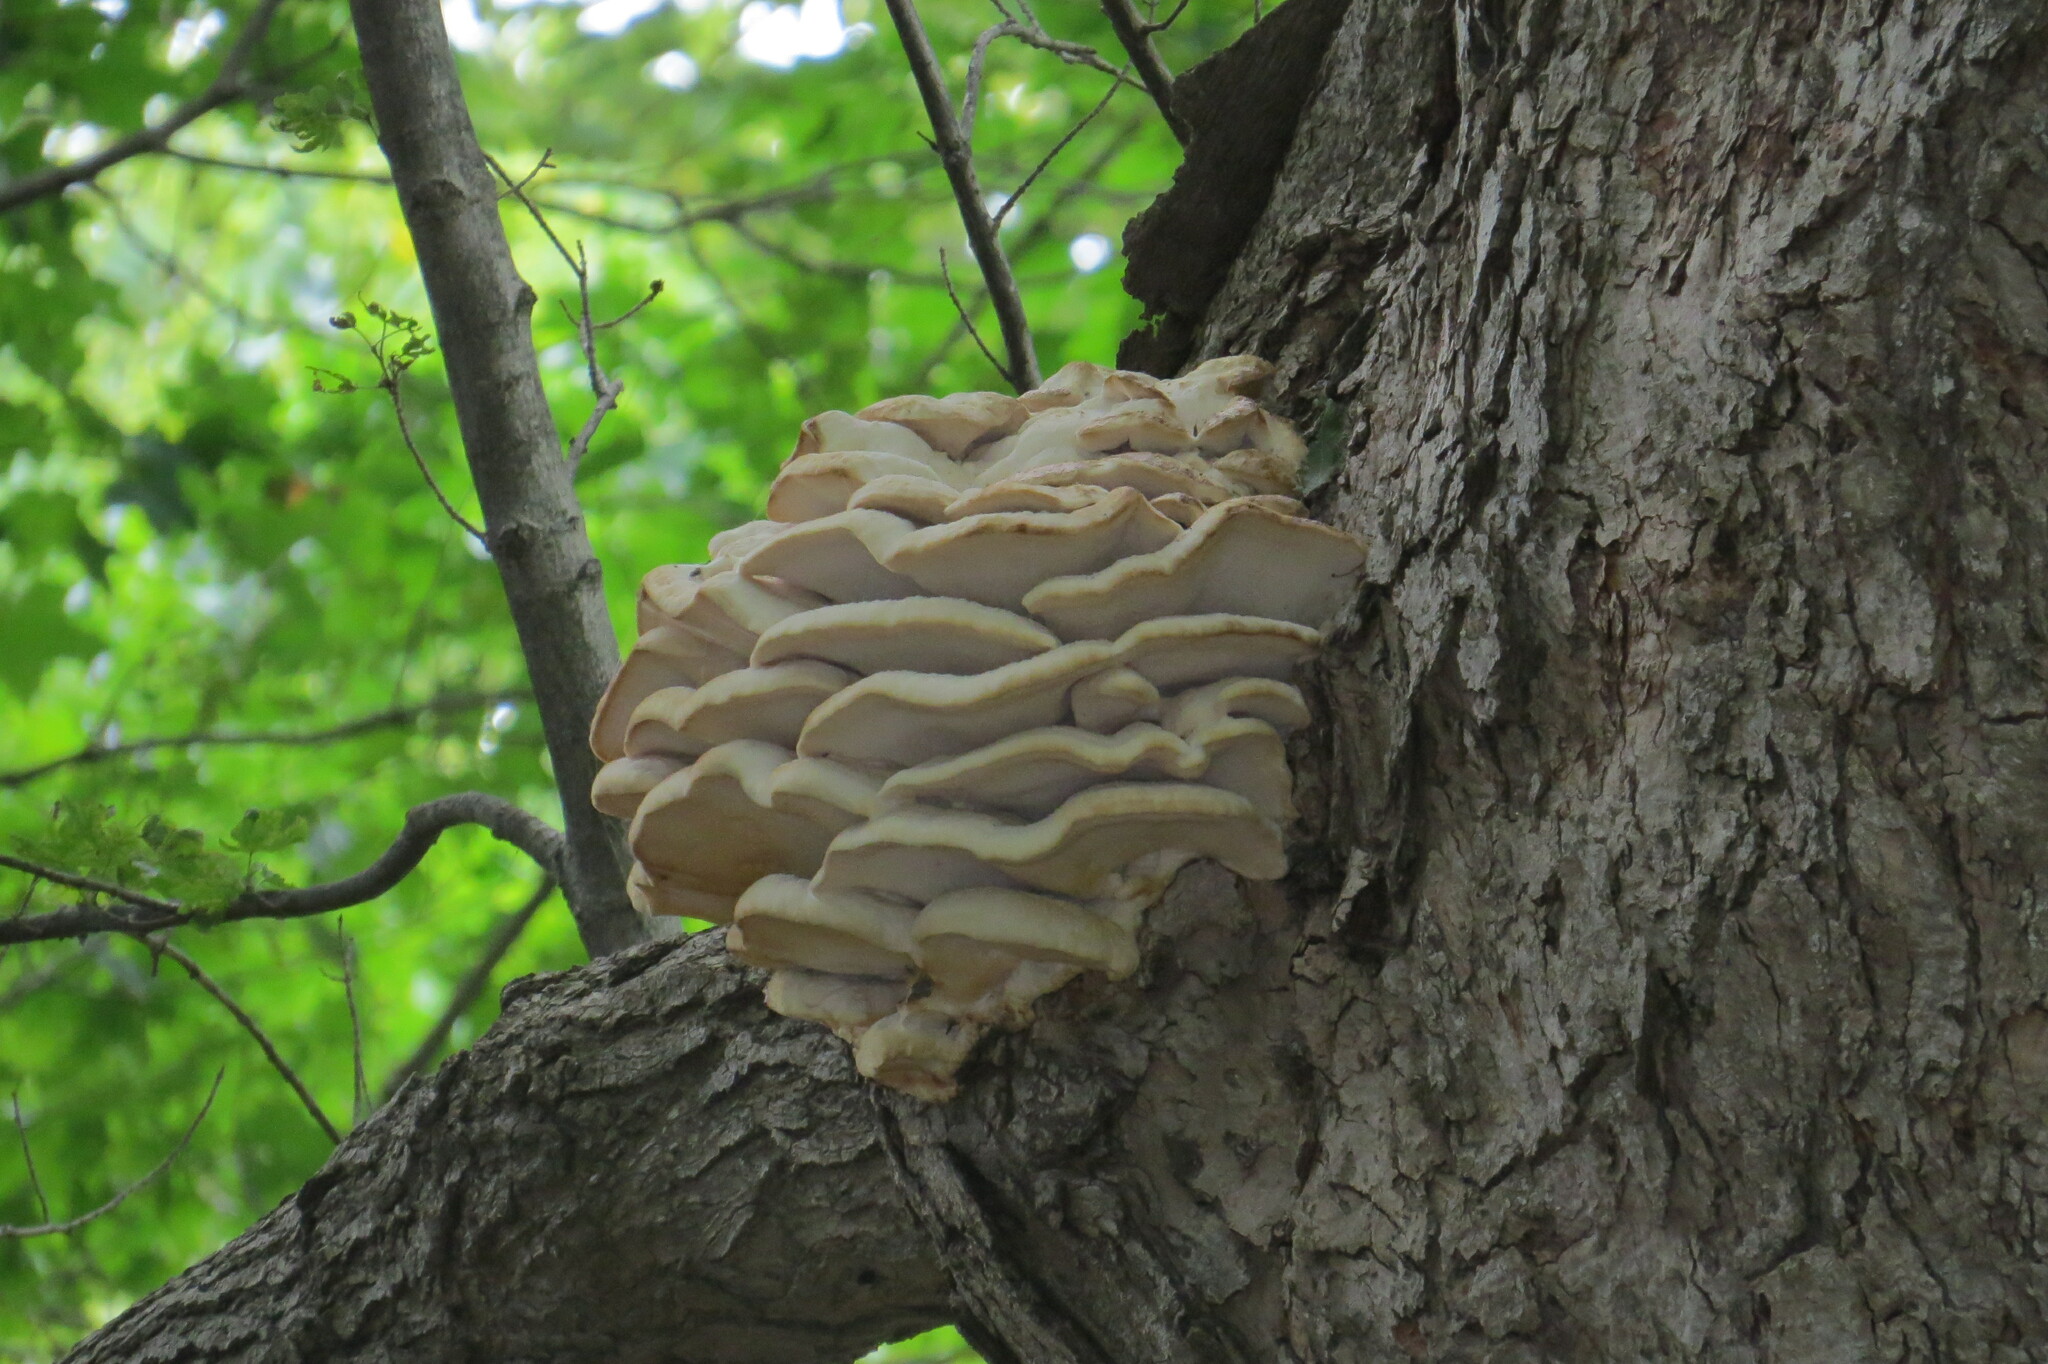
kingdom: Fungi
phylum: Basidiomycota
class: Agaricomycetes
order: Polyporales
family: Meruliaceae
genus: Climacodon
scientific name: Climacodon septentrionalis
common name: Northern tooth
